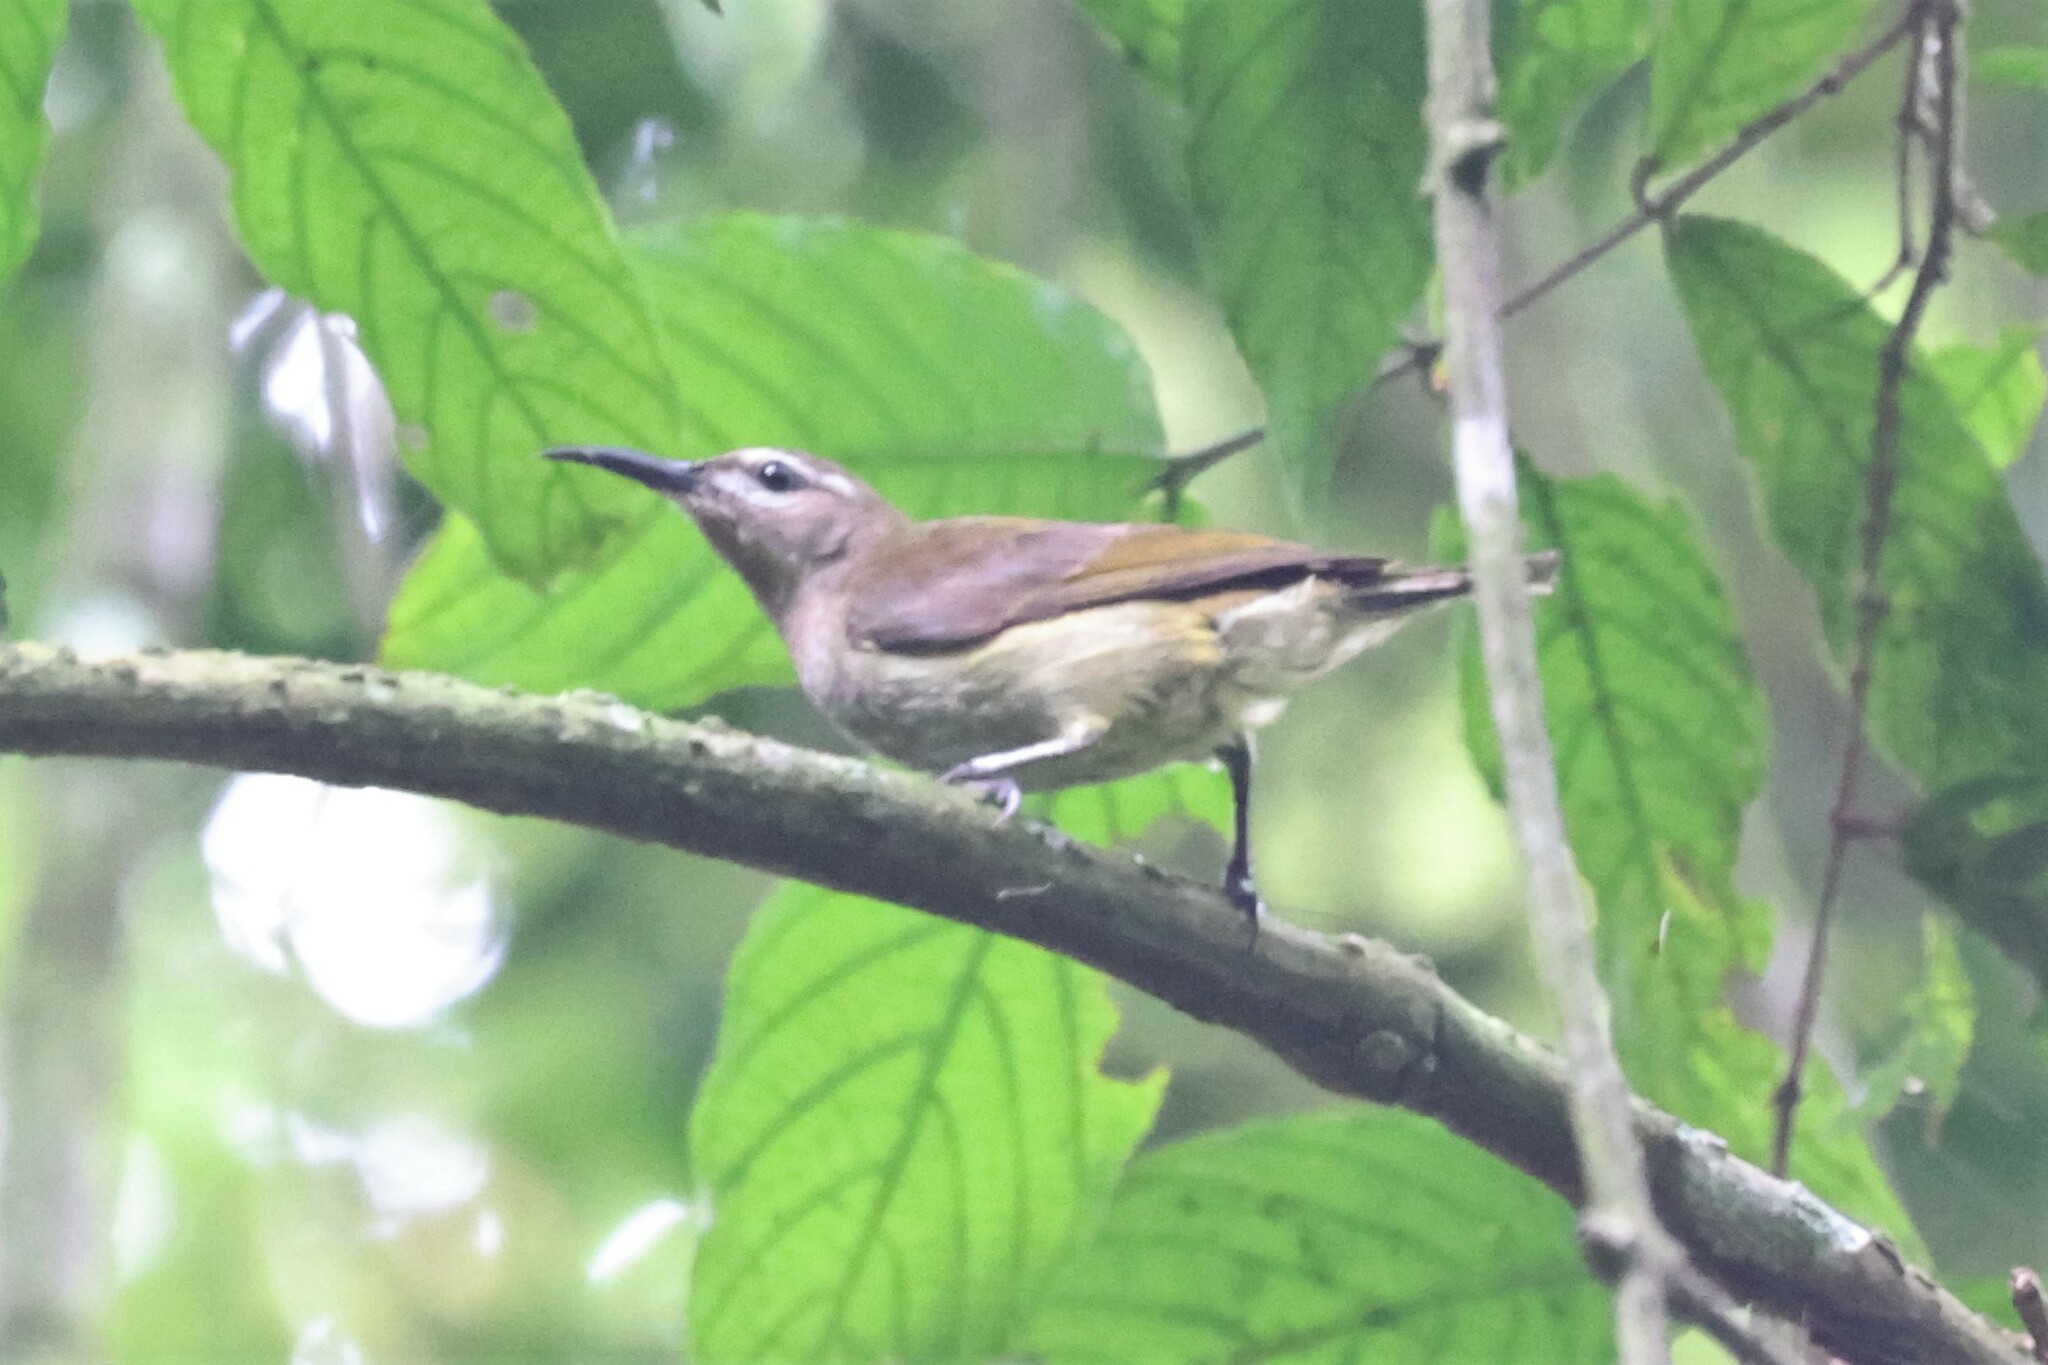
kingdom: Animalia
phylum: Chordata
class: Aves
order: Passeriformes
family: Nectariniidae
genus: Cyanomitra
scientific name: Cyanomitra cyanolaema
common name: Blue-throated brown sunbird
